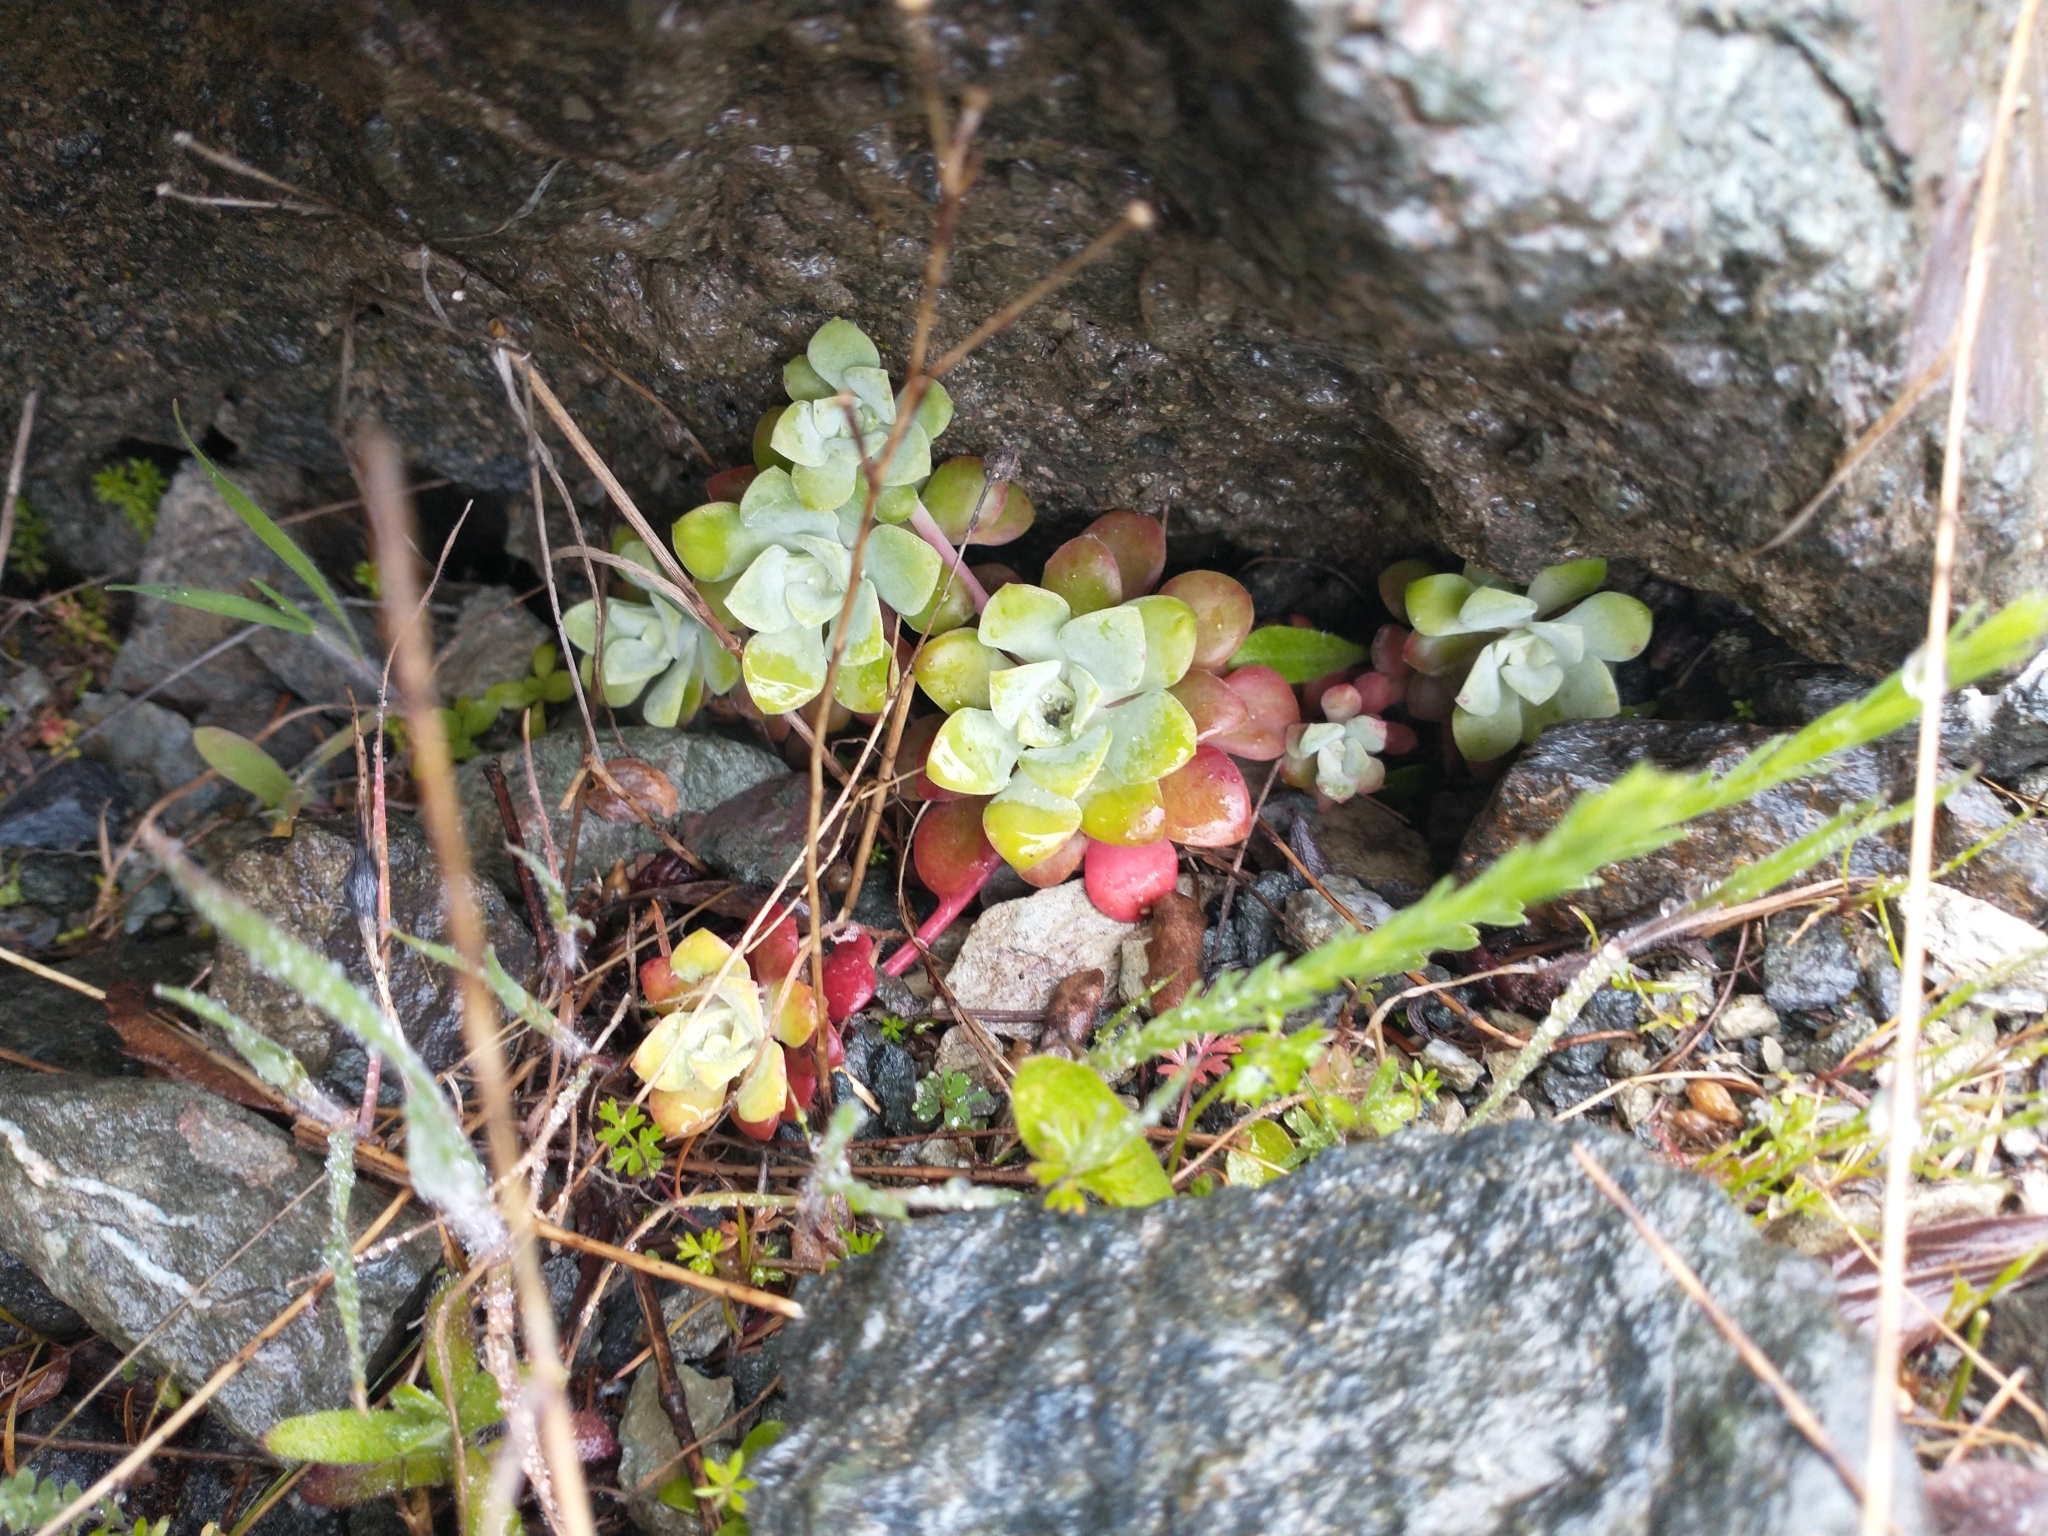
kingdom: Plantae
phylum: Tracheophyta
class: Magnoliopsida
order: Saxifragales
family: Crassulaceae
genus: Sedum
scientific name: Sedum spathulifolium
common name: Colorado stonecrop
